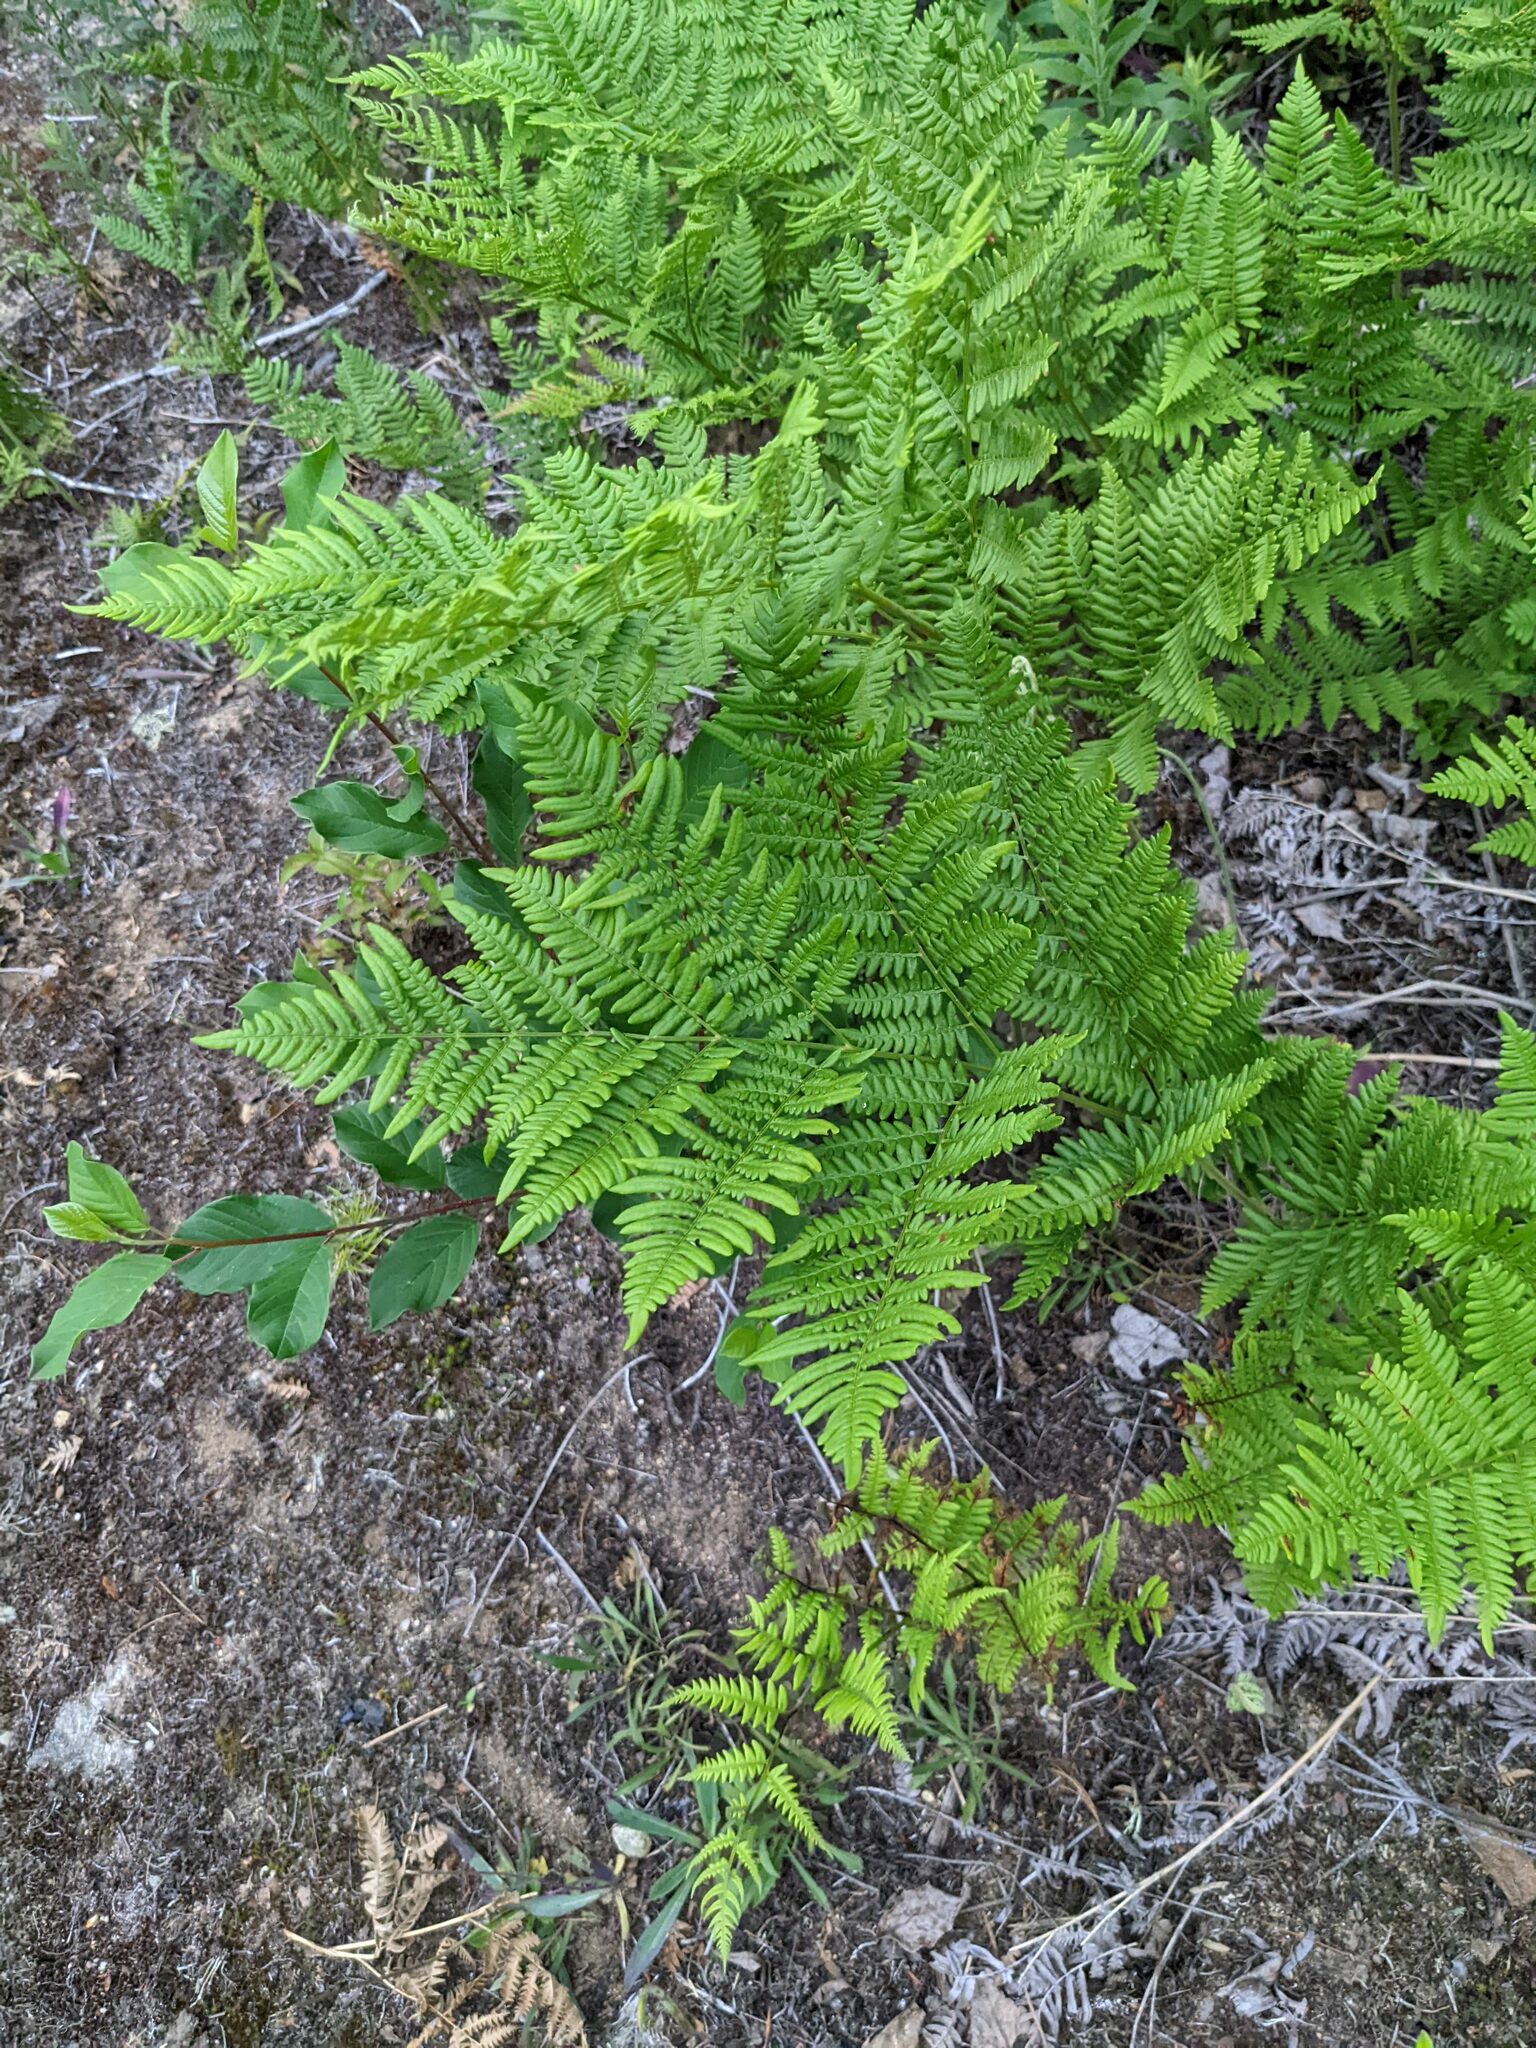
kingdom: Plantae
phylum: Tracheophyta
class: Polypodiopsida
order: Polypodiales
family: Dennstaedtiaceae
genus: Pteridium
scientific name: Pteridium aquilinum
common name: Bracken
